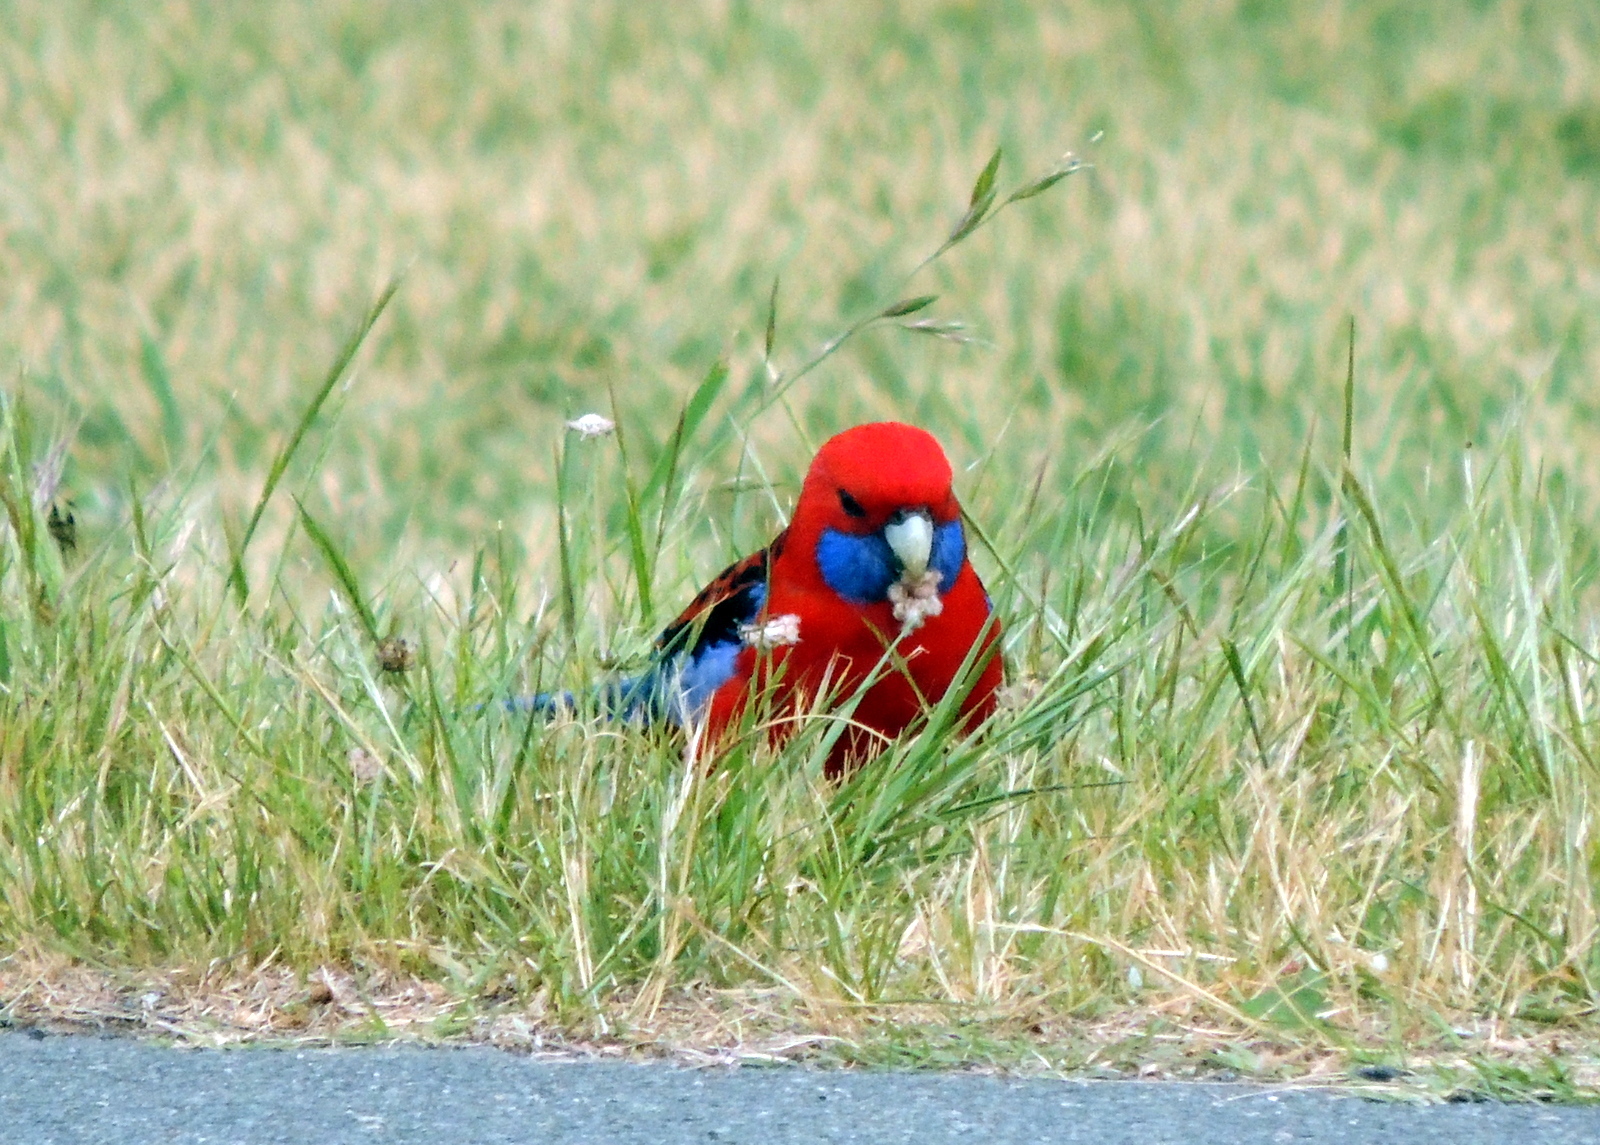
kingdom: Animalia
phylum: Chordata
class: Aves
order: Psittaciformes
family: Psittacidae
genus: Platycercus
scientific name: Platycercus elegans
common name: Crimson rosella
